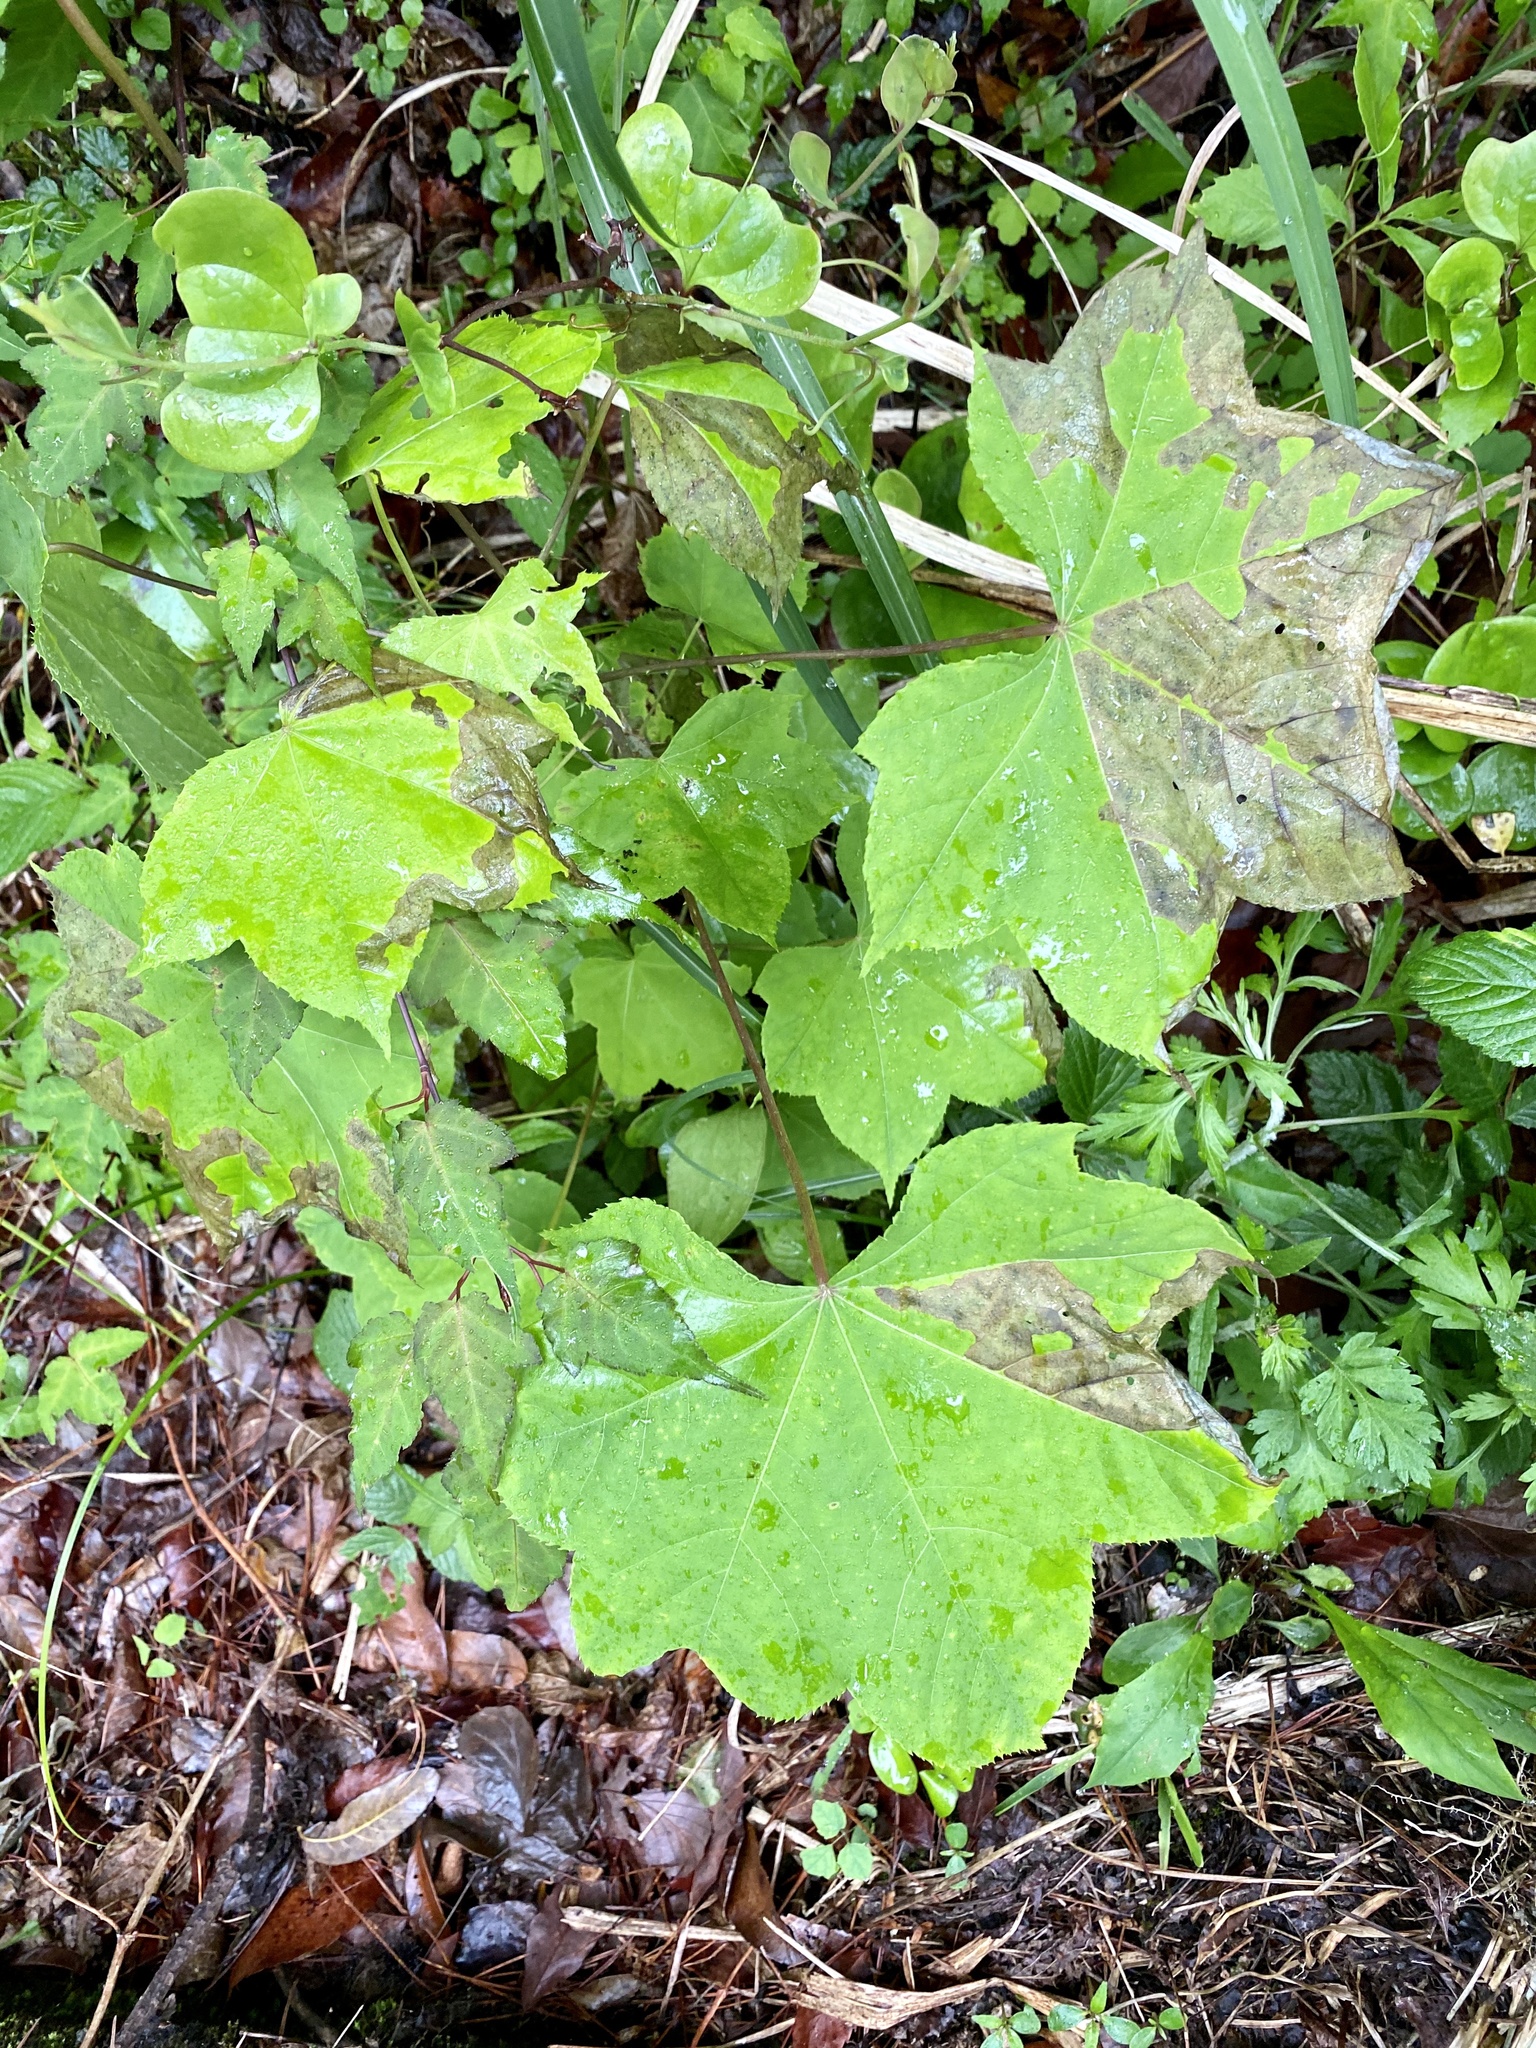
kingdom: Plantae
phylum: Tracheophyta
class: Magnoliopsida
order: Apiales
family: Araliaceae
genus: Kalopanax
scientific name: Kalopanax septemlobus
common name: Castor aralia
